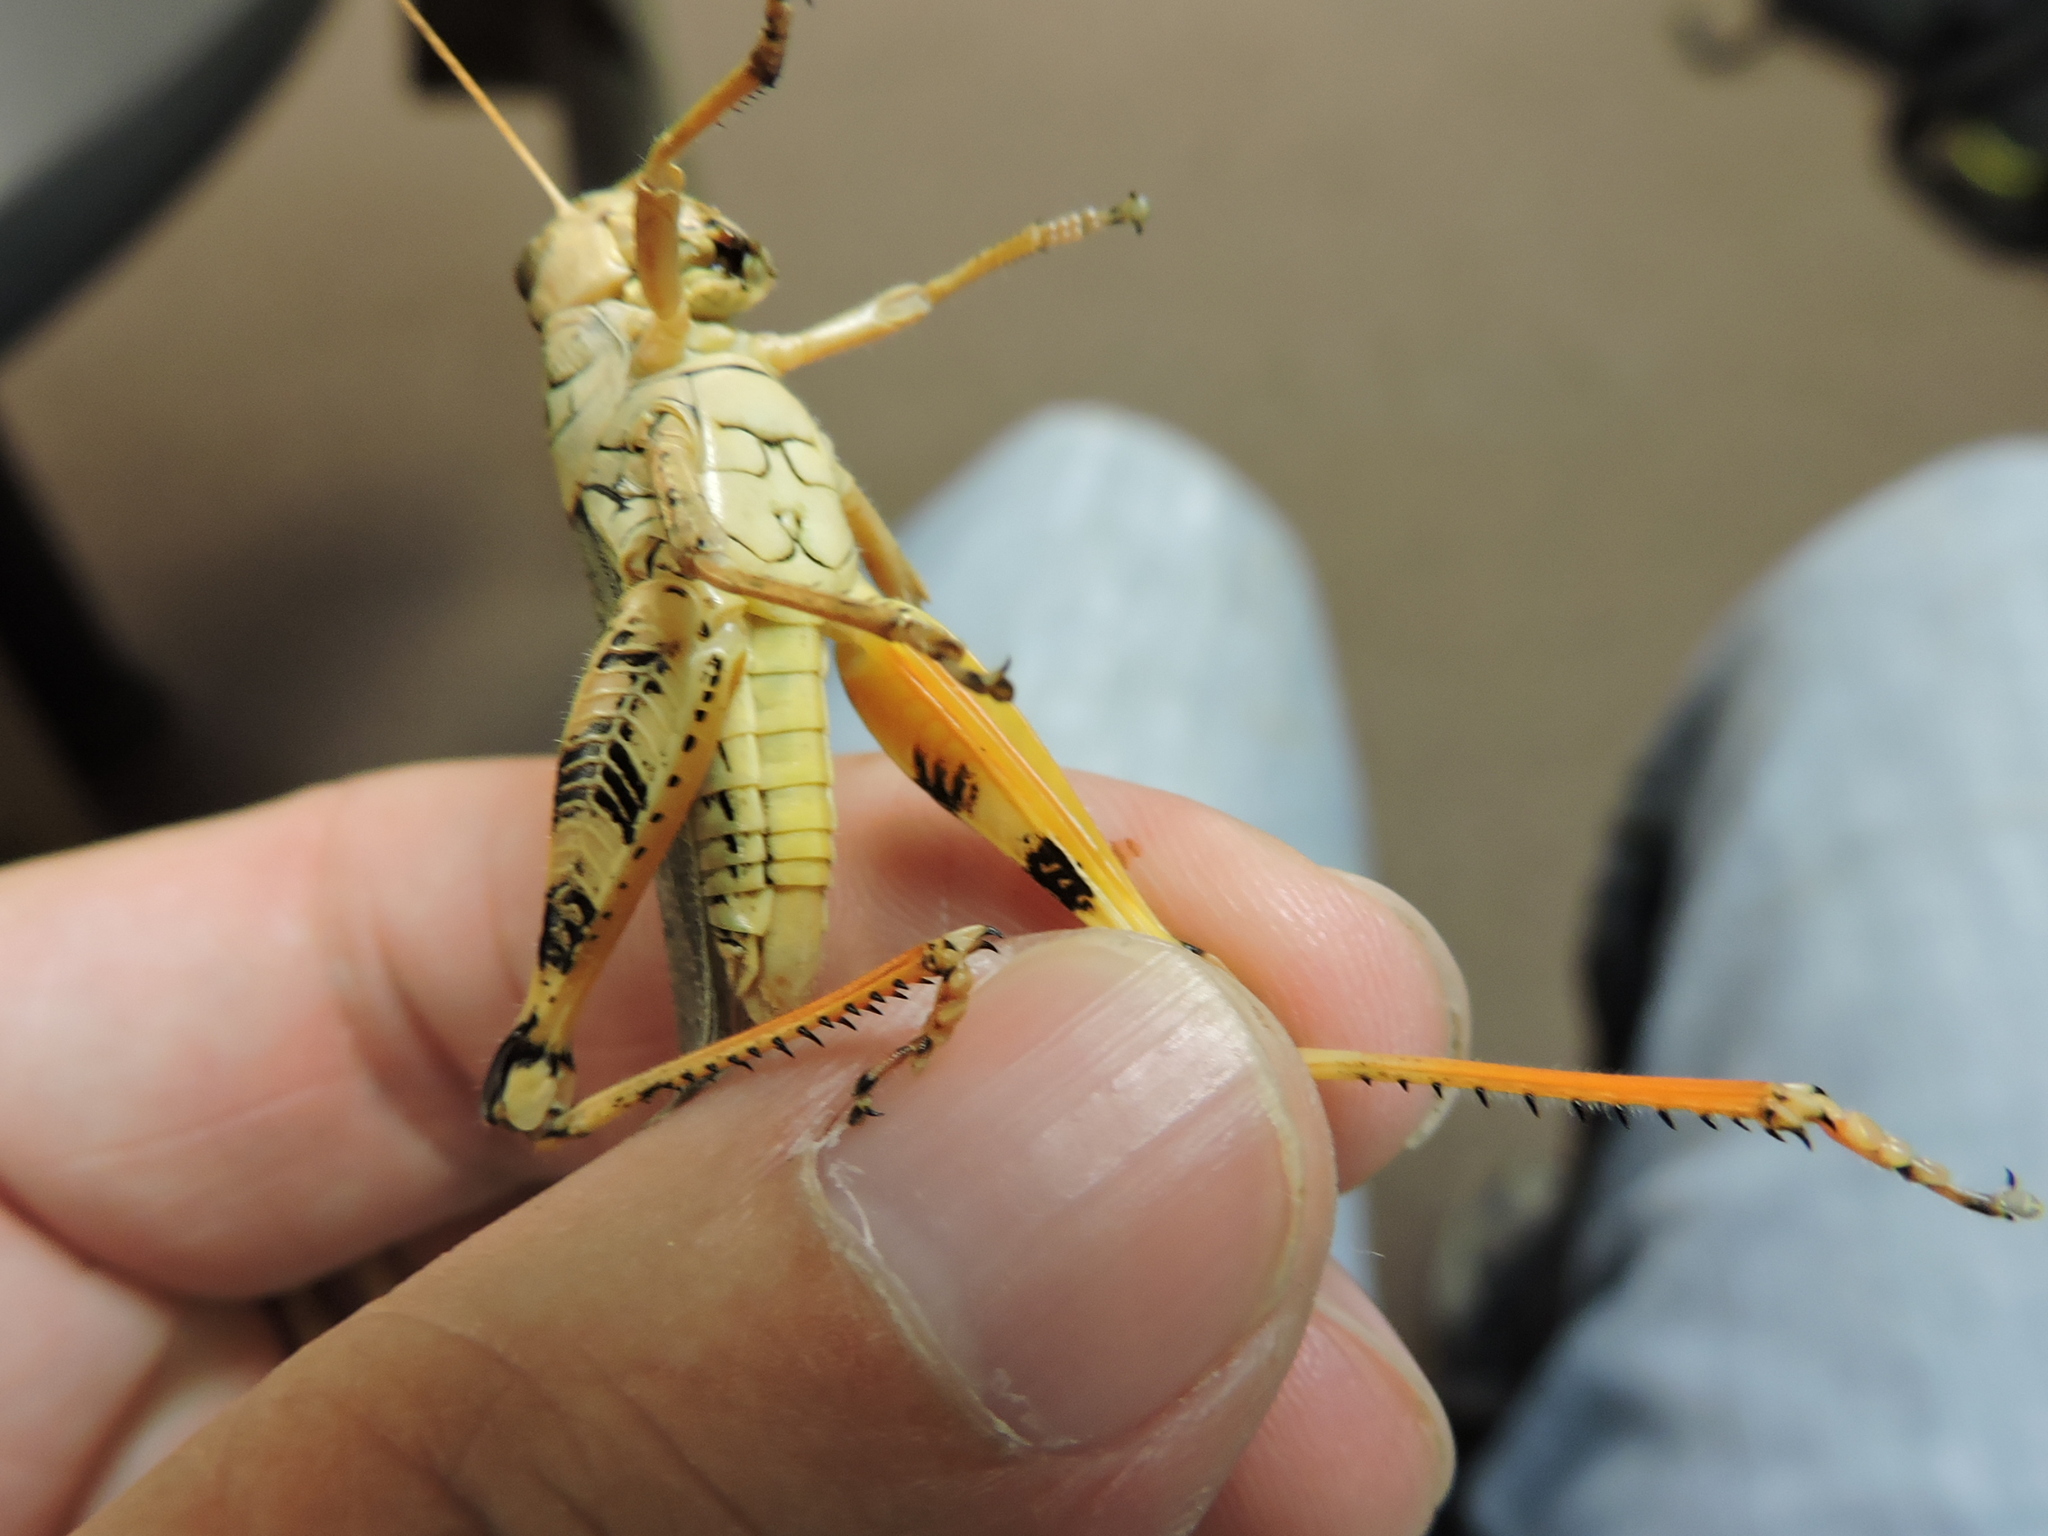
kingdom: Animalia
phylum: Arthropoda
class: Insecta
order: Orthoptera
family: Acrididae
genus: Melanoplus
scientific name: Melanoplus ponderosus
